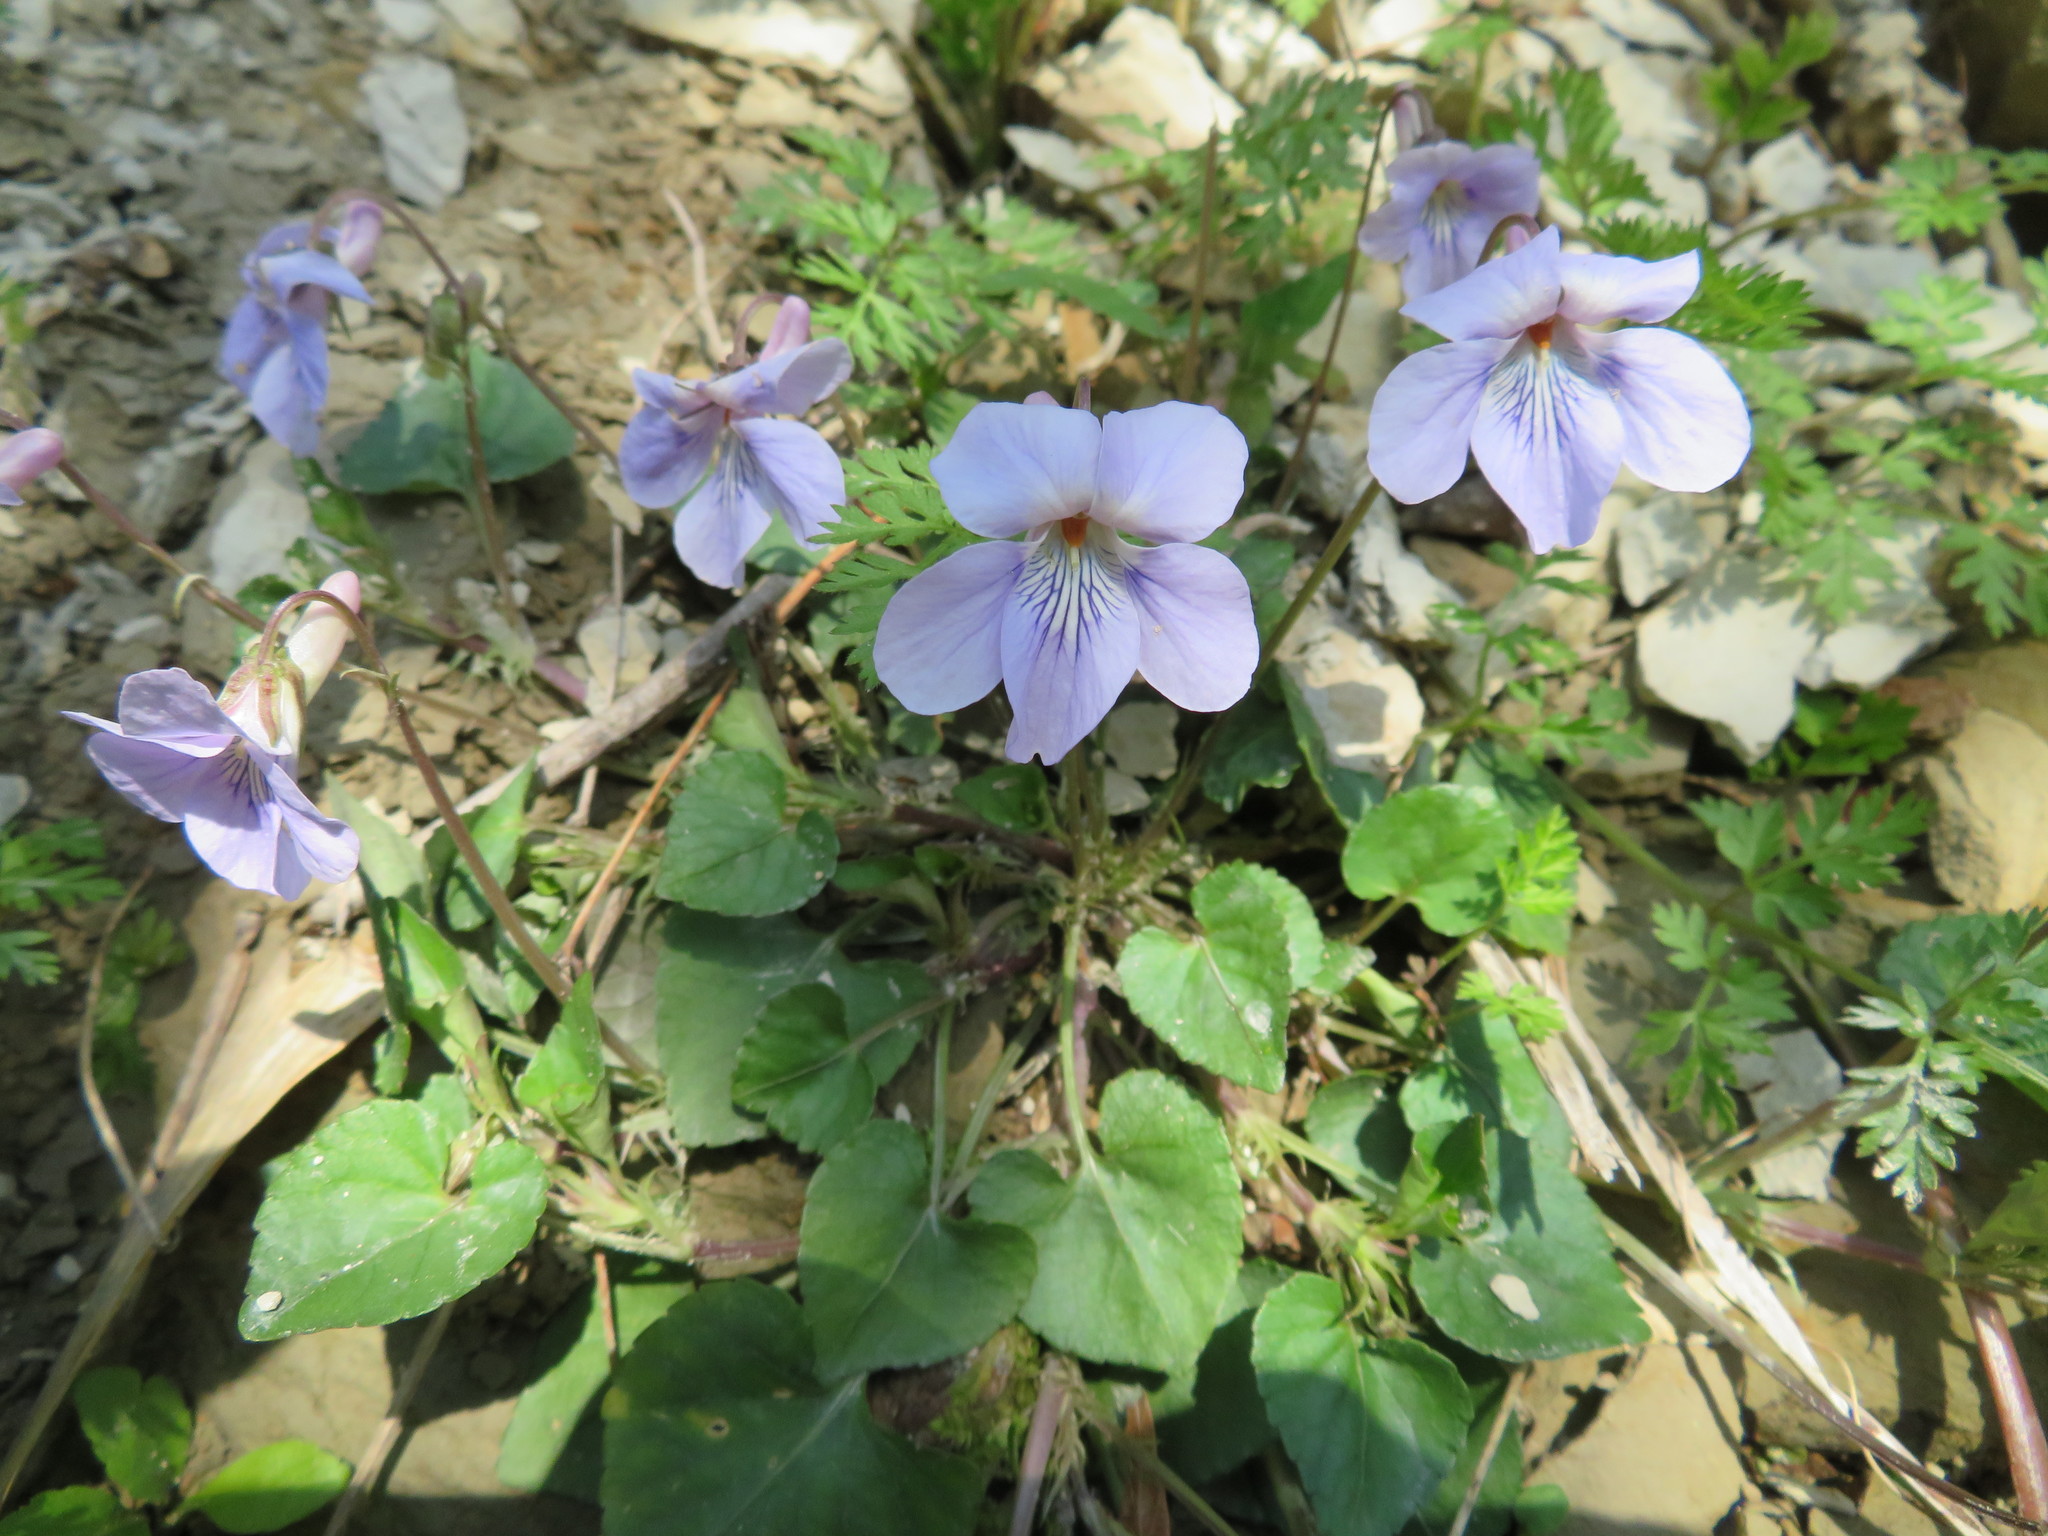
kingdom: Plantae
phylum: Tracheophyta
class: Magnoliopsida
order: Malpighiales
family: Violaceae
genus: Viola
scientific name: Viola grypoceras
